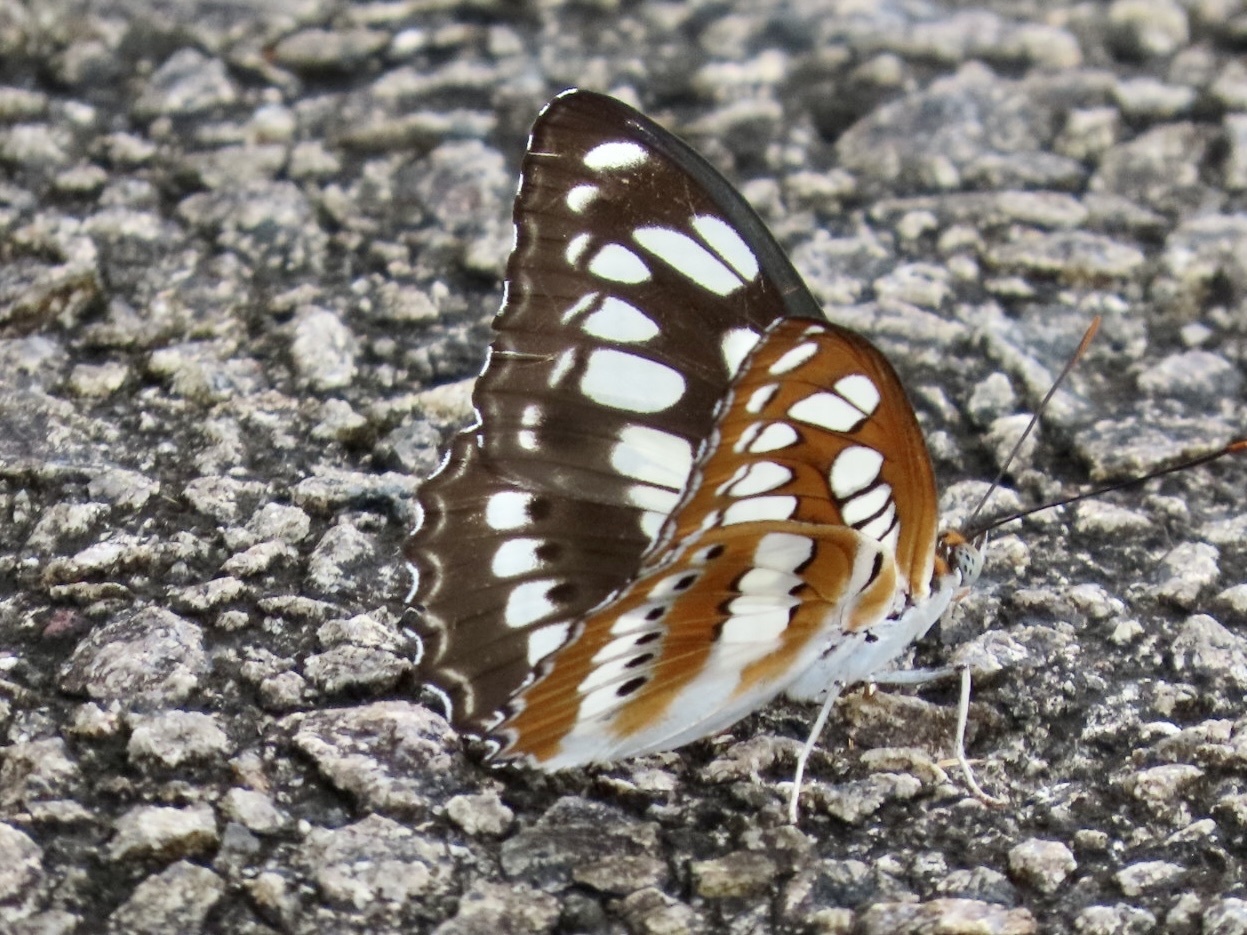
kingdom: Animalia
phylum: Arthropoda
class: Insecta
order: Lepidoptera
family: Nymphalidae
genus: Parathyma
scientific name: Parathyma perius
